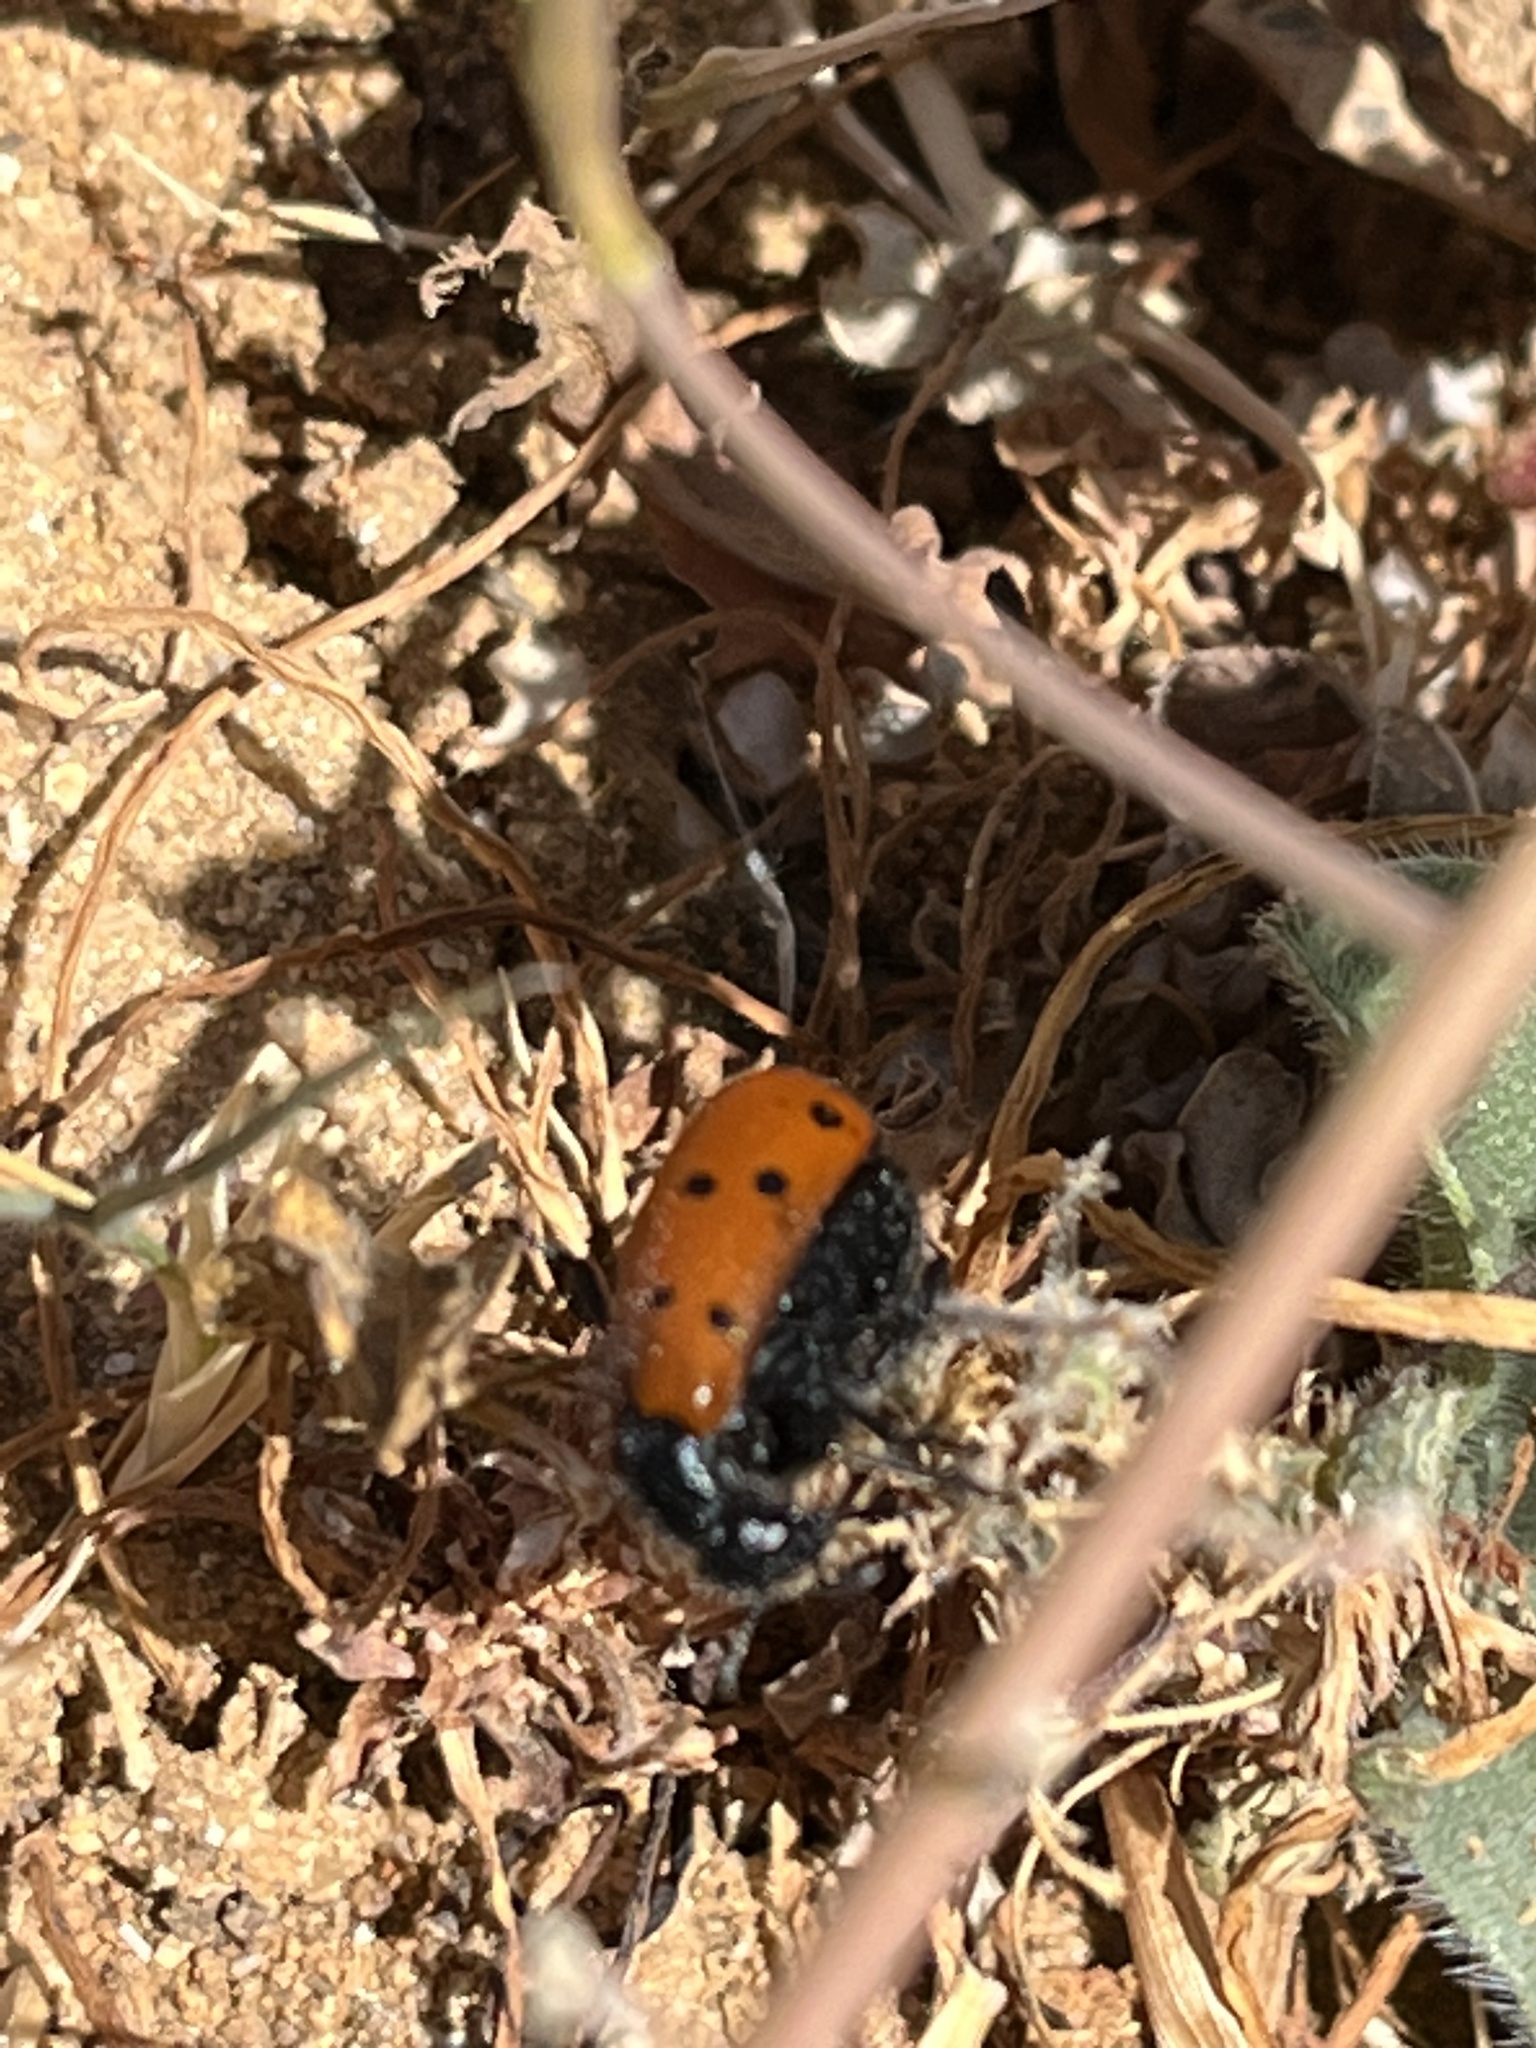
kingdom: Animalia
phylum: Arthropoda
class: Insecta
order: Coleoptera
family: Cleridae
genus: Trichodes
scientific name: Trichodes octopunctatus
